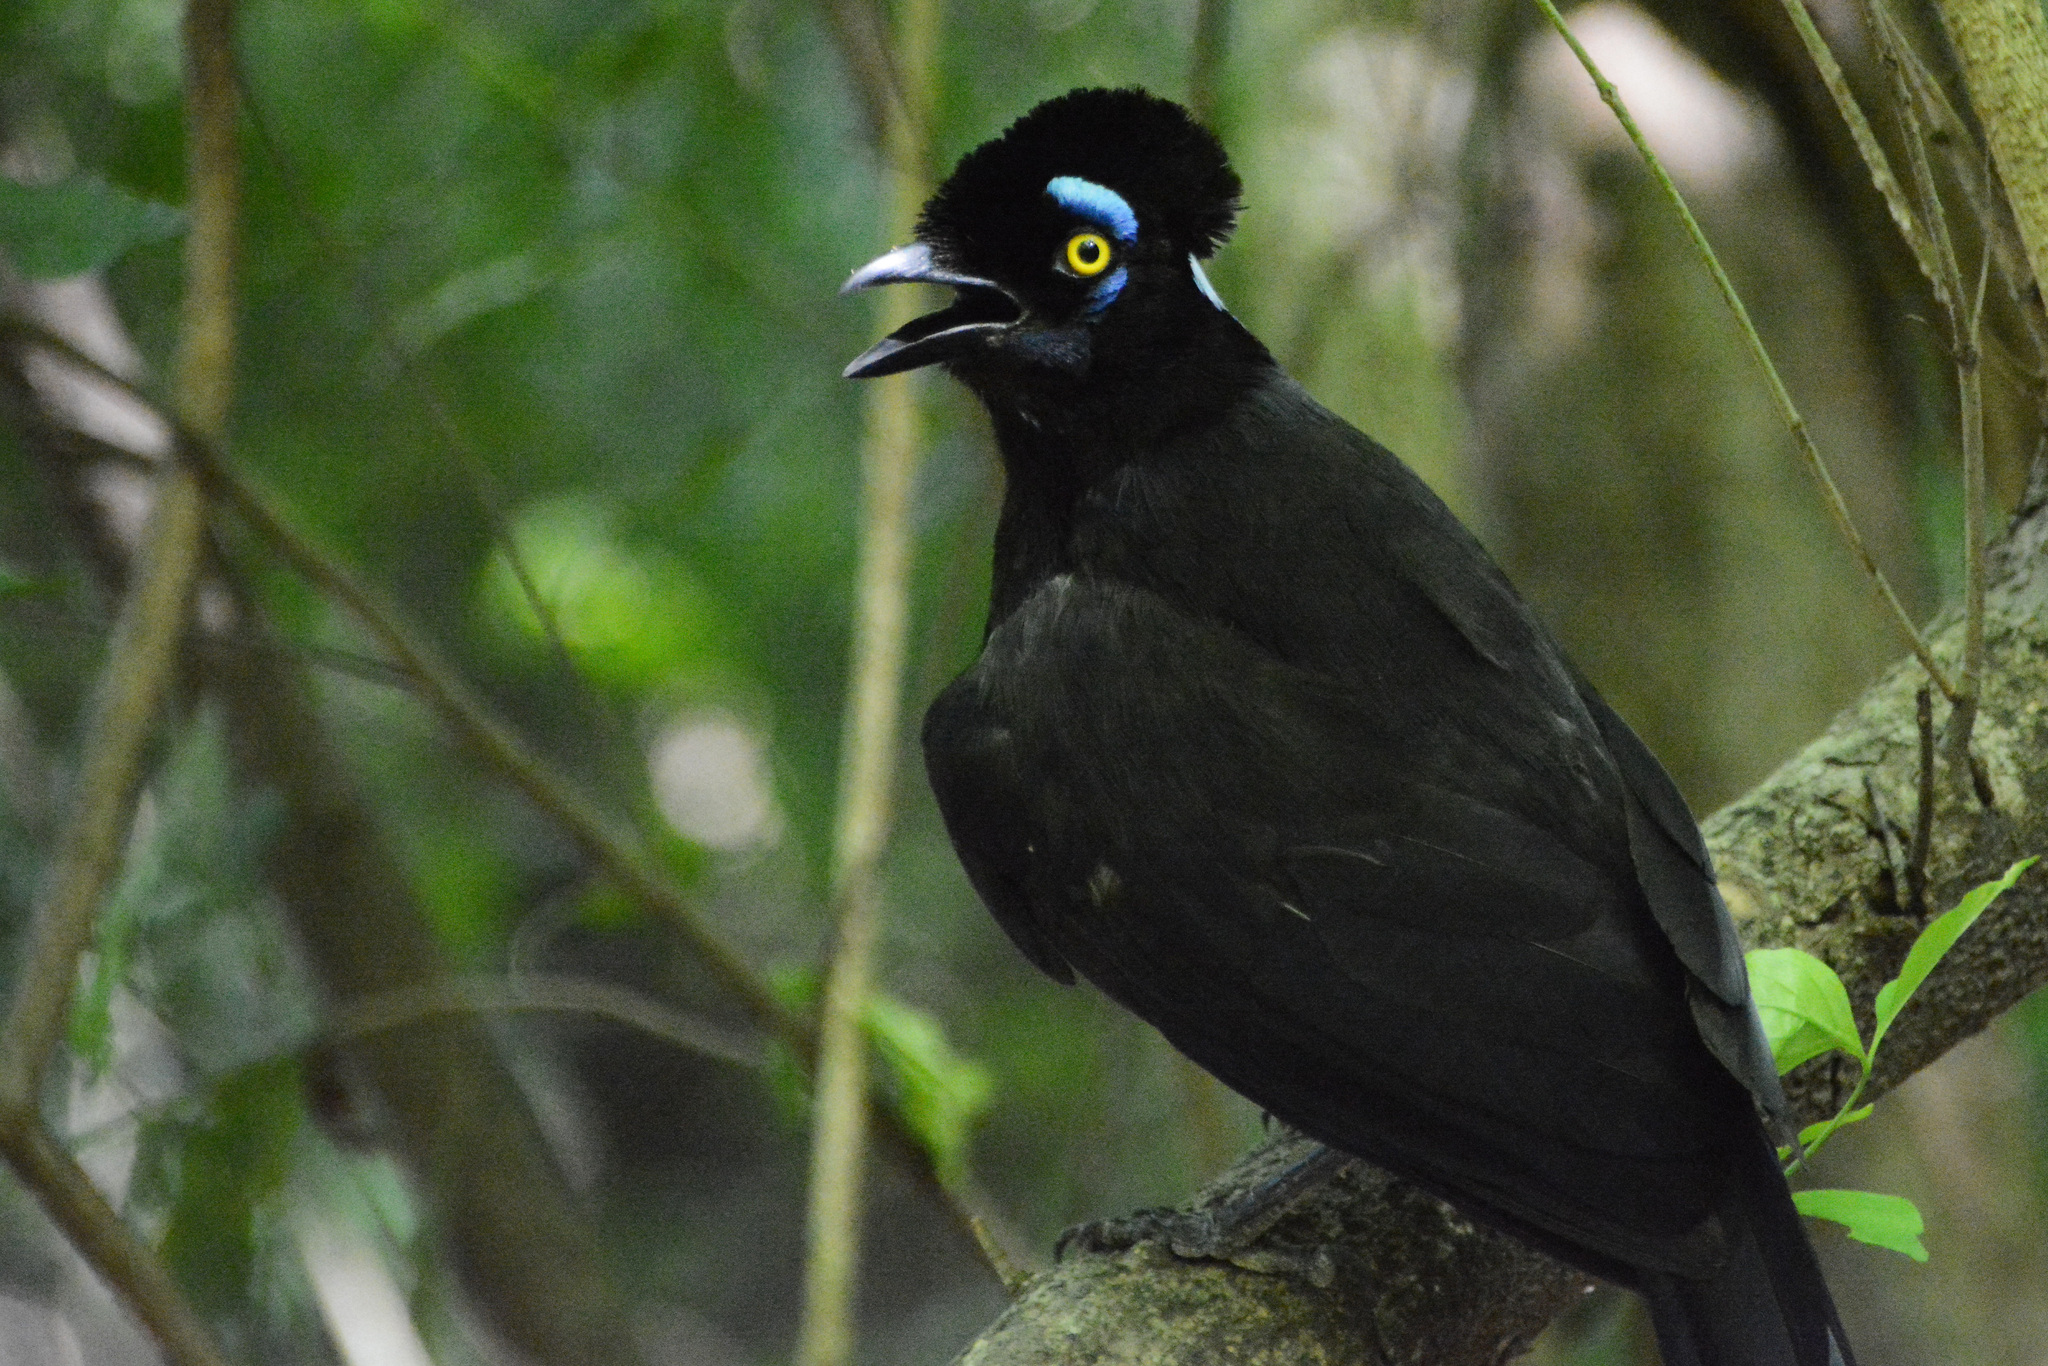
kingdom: Animalia
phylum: Chordata
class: Aves
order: Passeriformes
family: Corvidae
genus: Cyanocorax
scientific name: Cyanocorax chrysops
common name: Plush-crested jay
